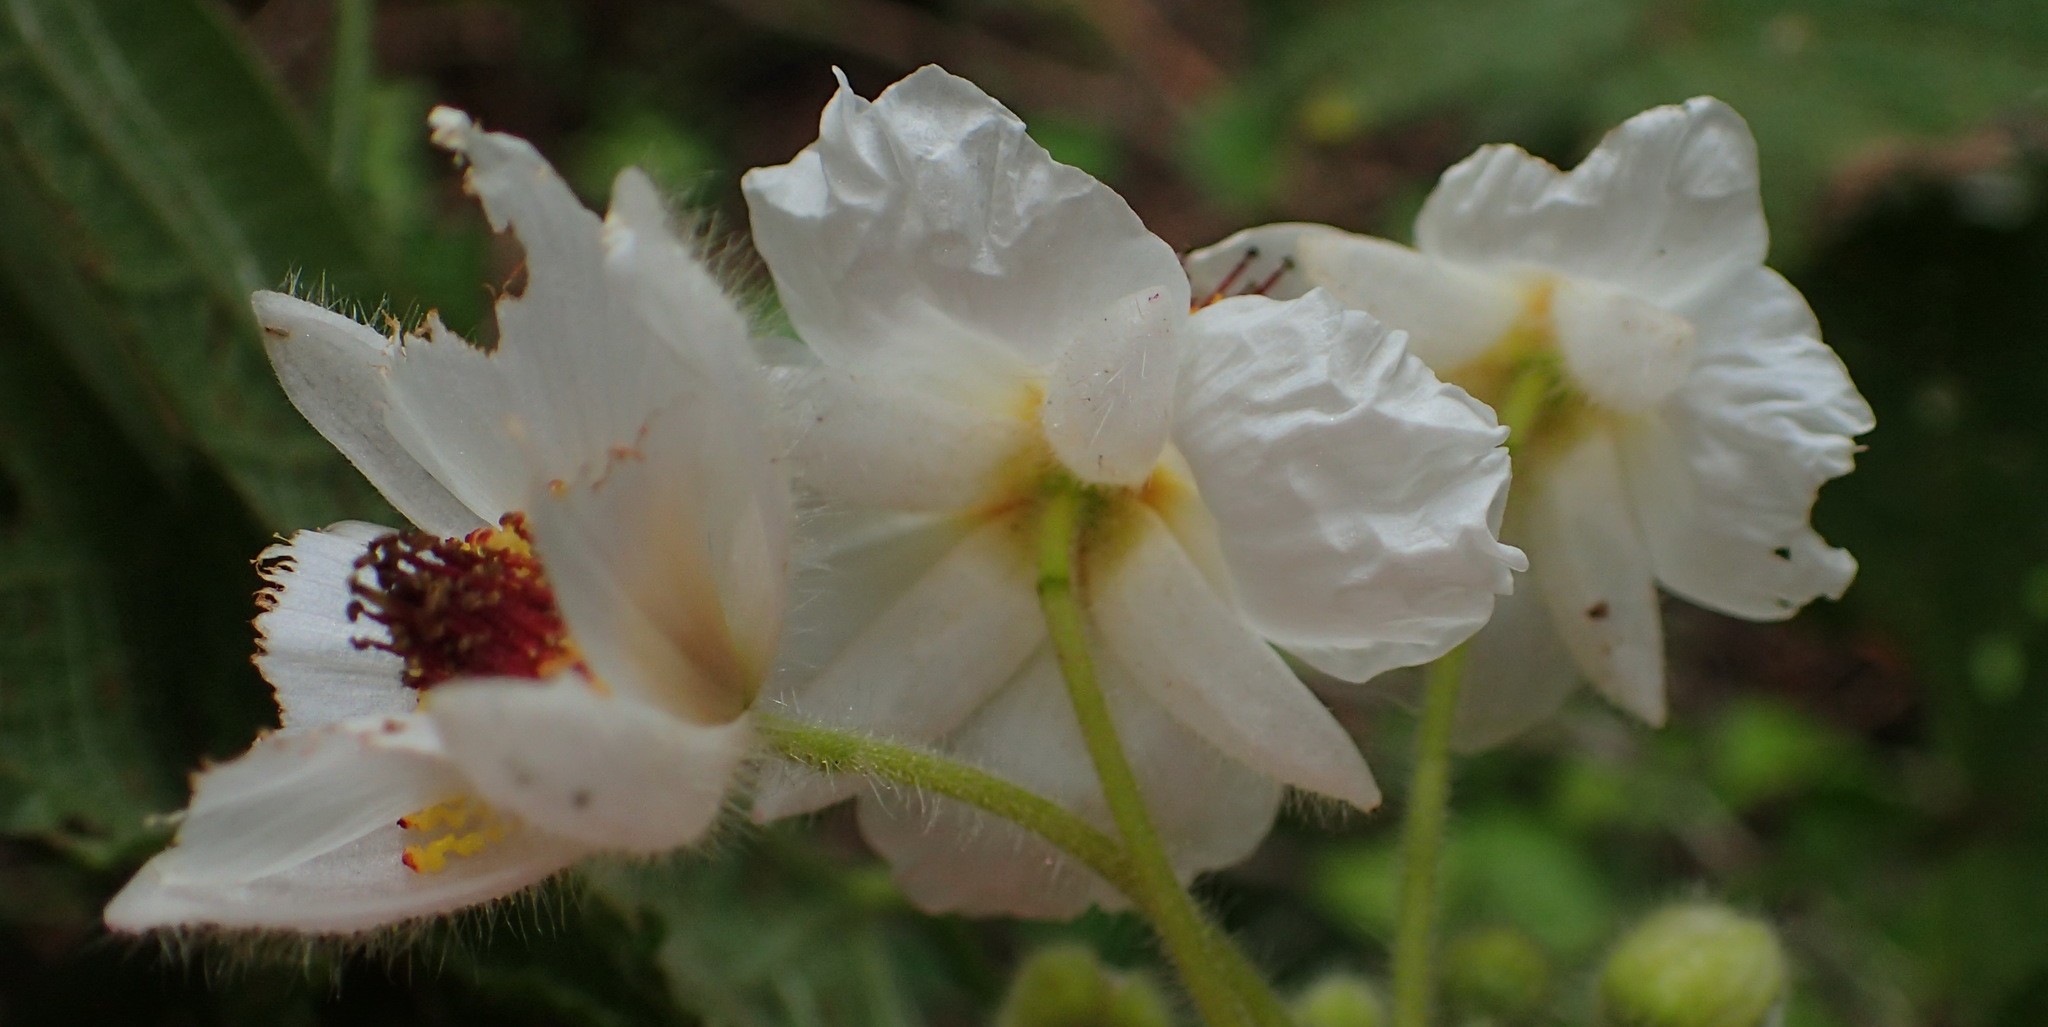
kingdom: Plantae
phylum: Tracheophyta
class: Magnoliopsida
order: Malvales
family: Malvaceae
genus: Sparrmannia
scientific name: Sparrmannia africana
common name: African-hemp
